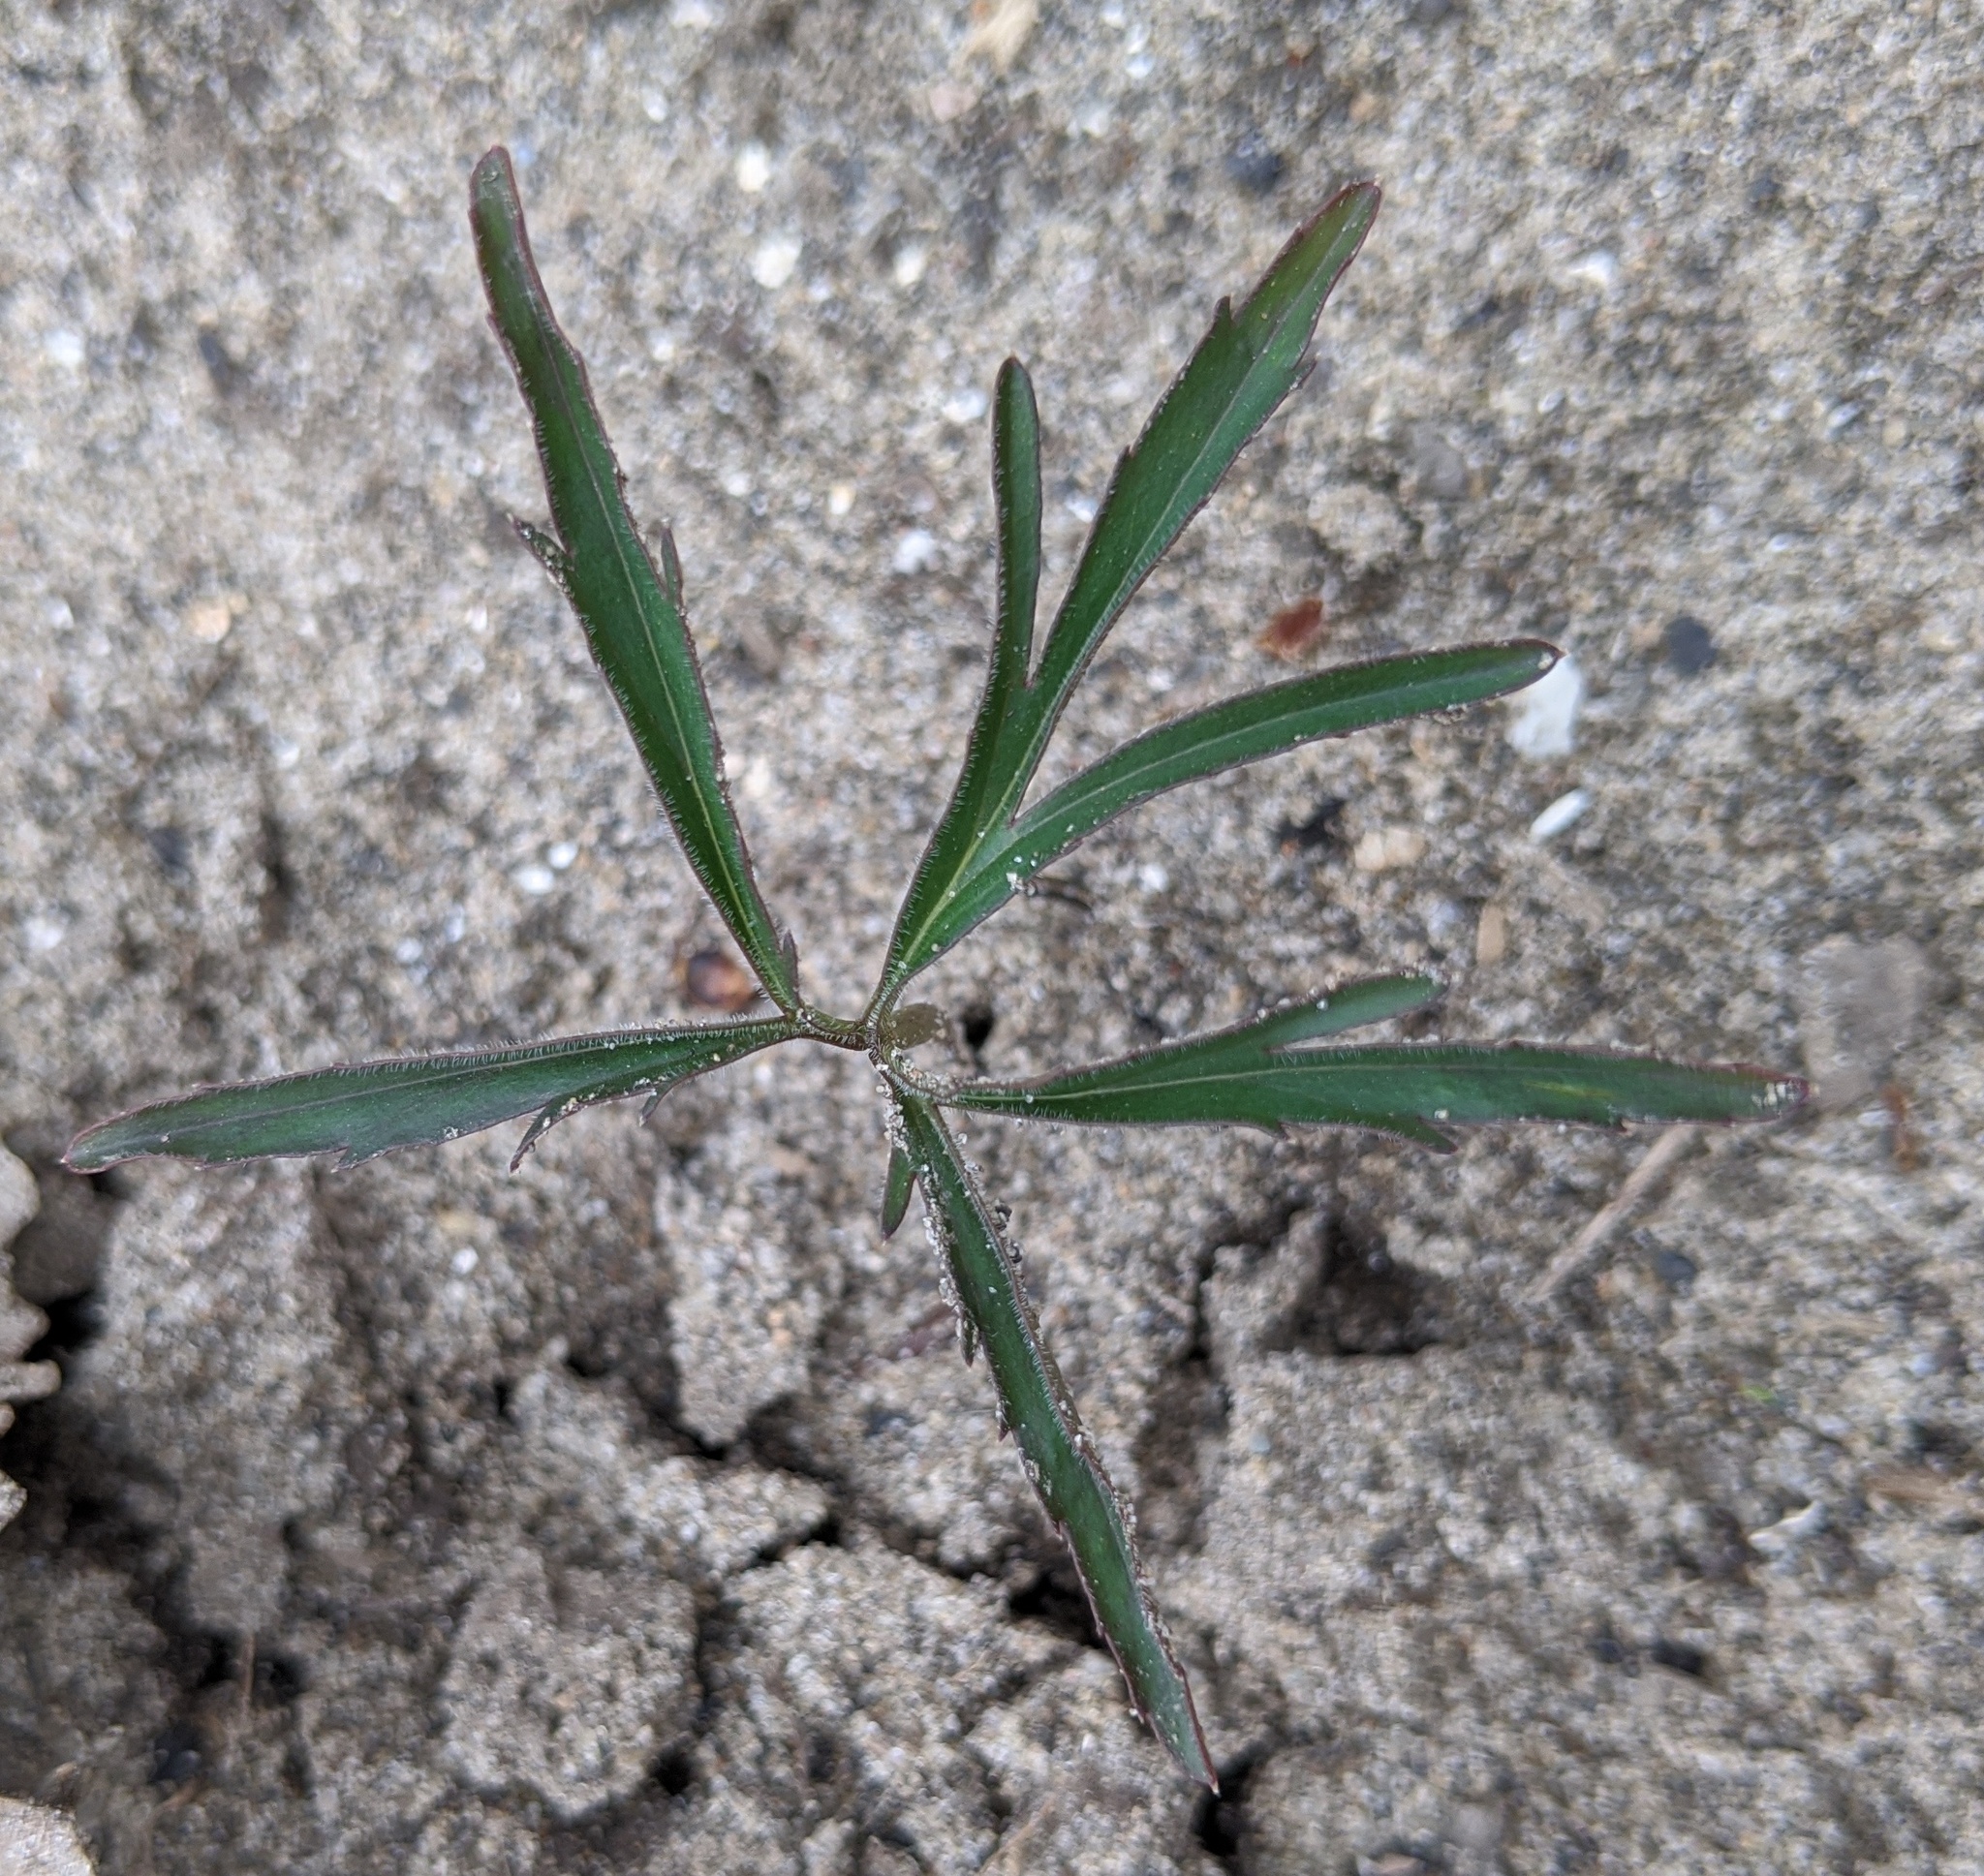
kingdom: Plantae
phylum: Tracheophyta
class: Magnoliopsida
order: Brassicales
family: Brassicaceae
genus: Cardamine
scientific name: Cardamine concatenata
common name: Cut-leaf toothcup
